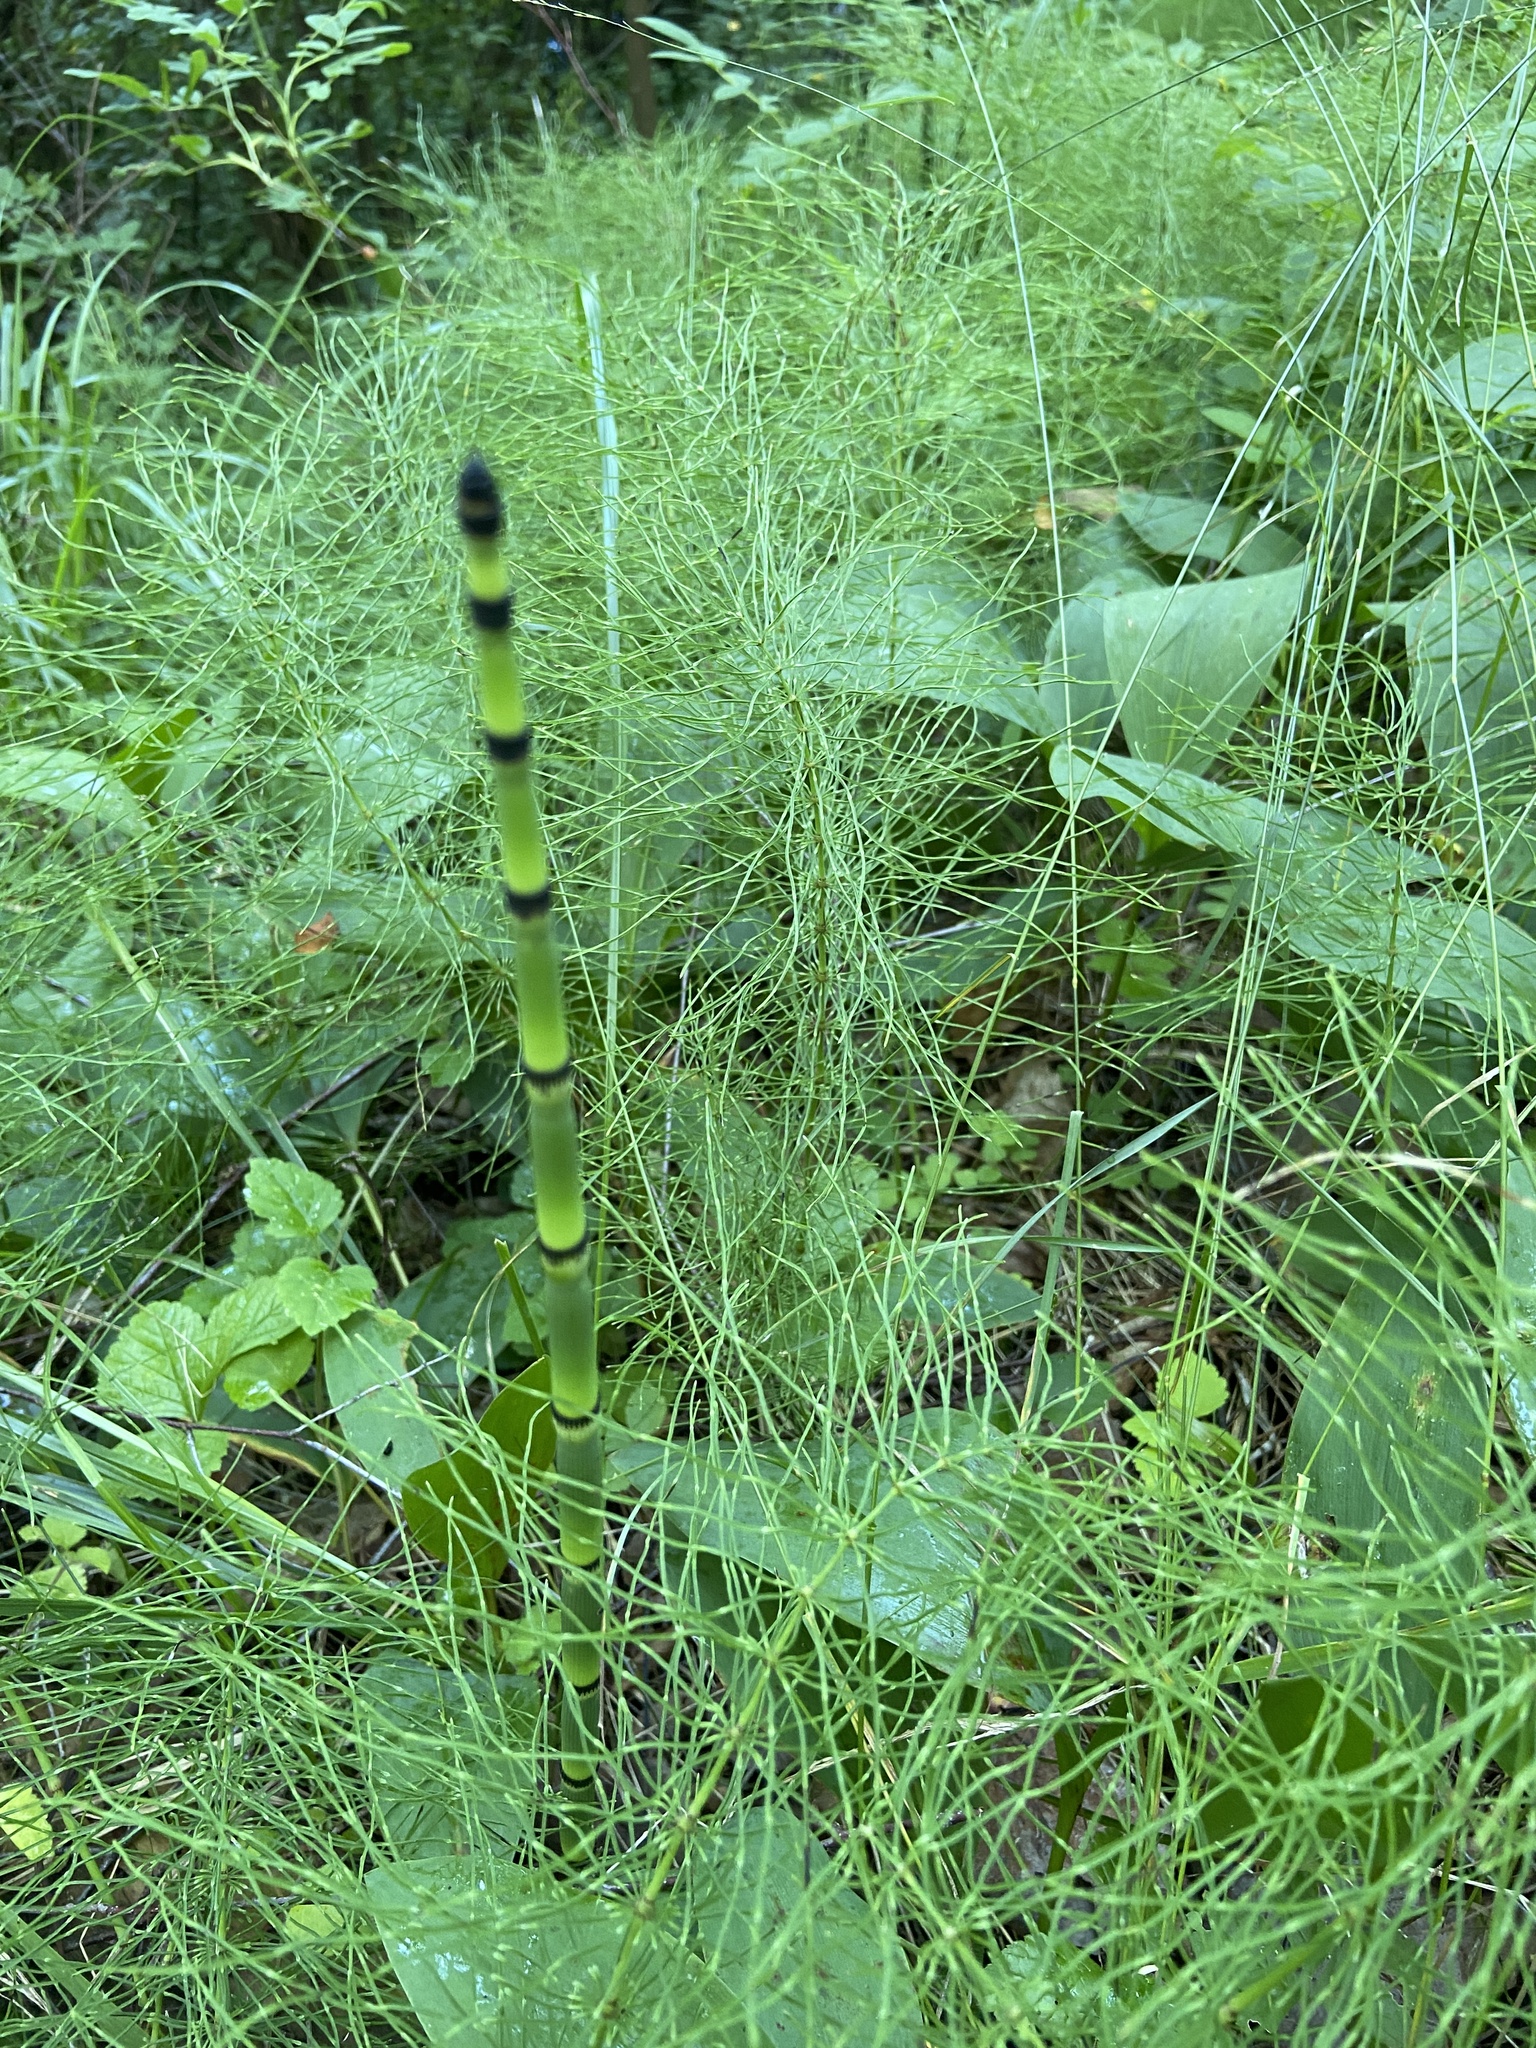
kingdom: Plantae
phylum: Tracheophyta
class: Polypodiopsida
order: Equisetales
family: Equisetaceae
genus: Equisetum
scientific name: Equisetum hyemale
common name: Rough horsetail
